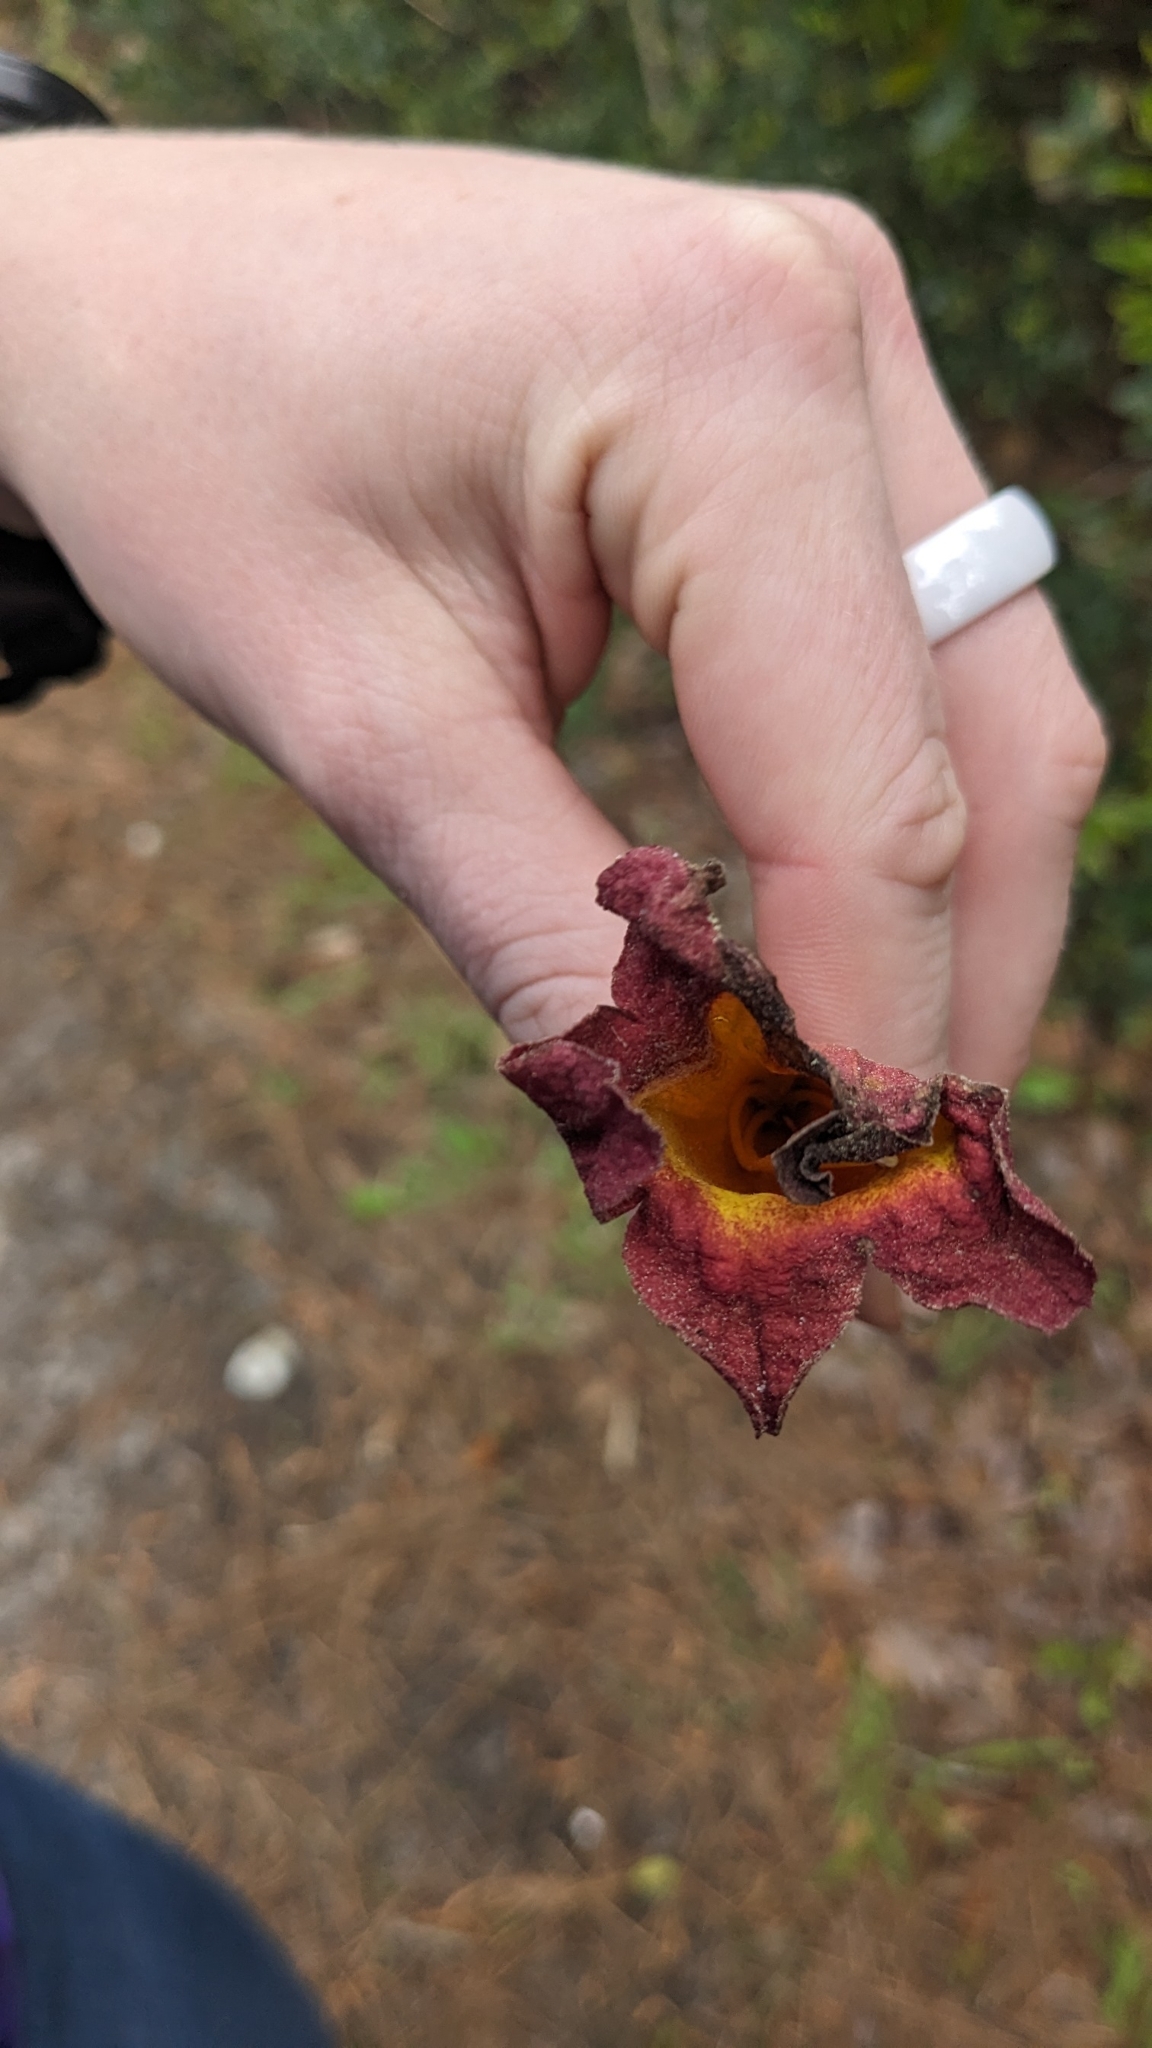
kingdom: Plantae
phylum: Tracheophyta
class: Magnoliopsida
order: Lamiales
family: Bignoniaceae
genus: Bignonia
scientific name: Bignonia capreolata
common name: Crossvine
